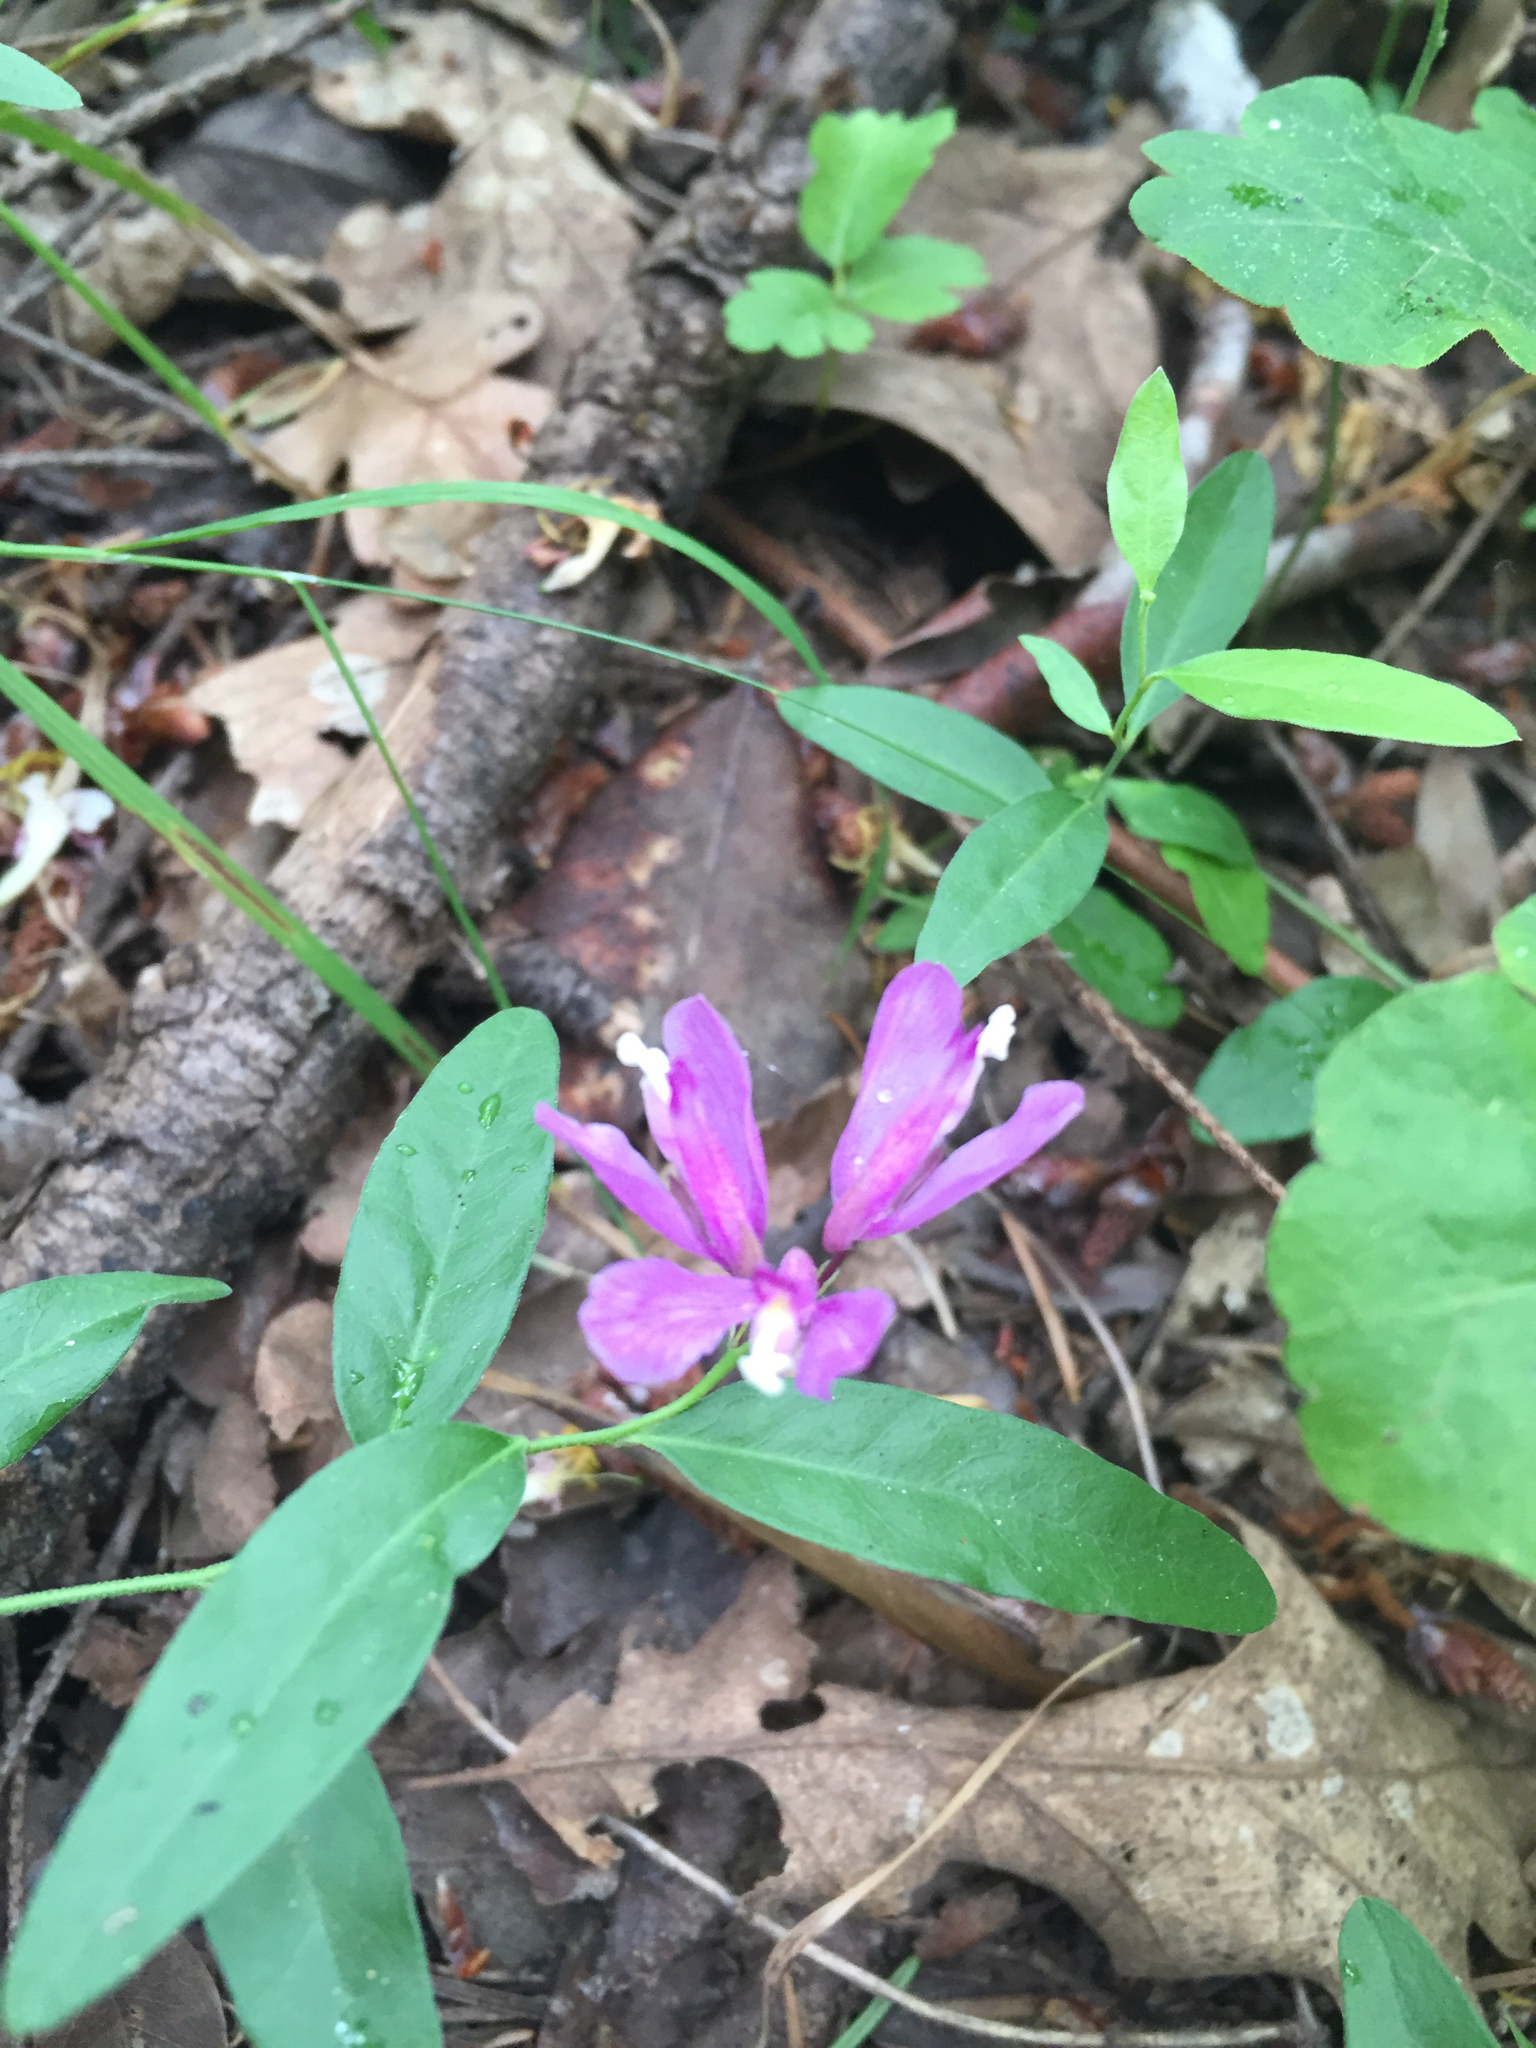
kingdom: Plantae
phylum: Tracheophyta
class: Magnoliopsida
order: Fabales
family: Polygalaceae
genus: Rhinotropis
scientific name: Rhinotropis californica
